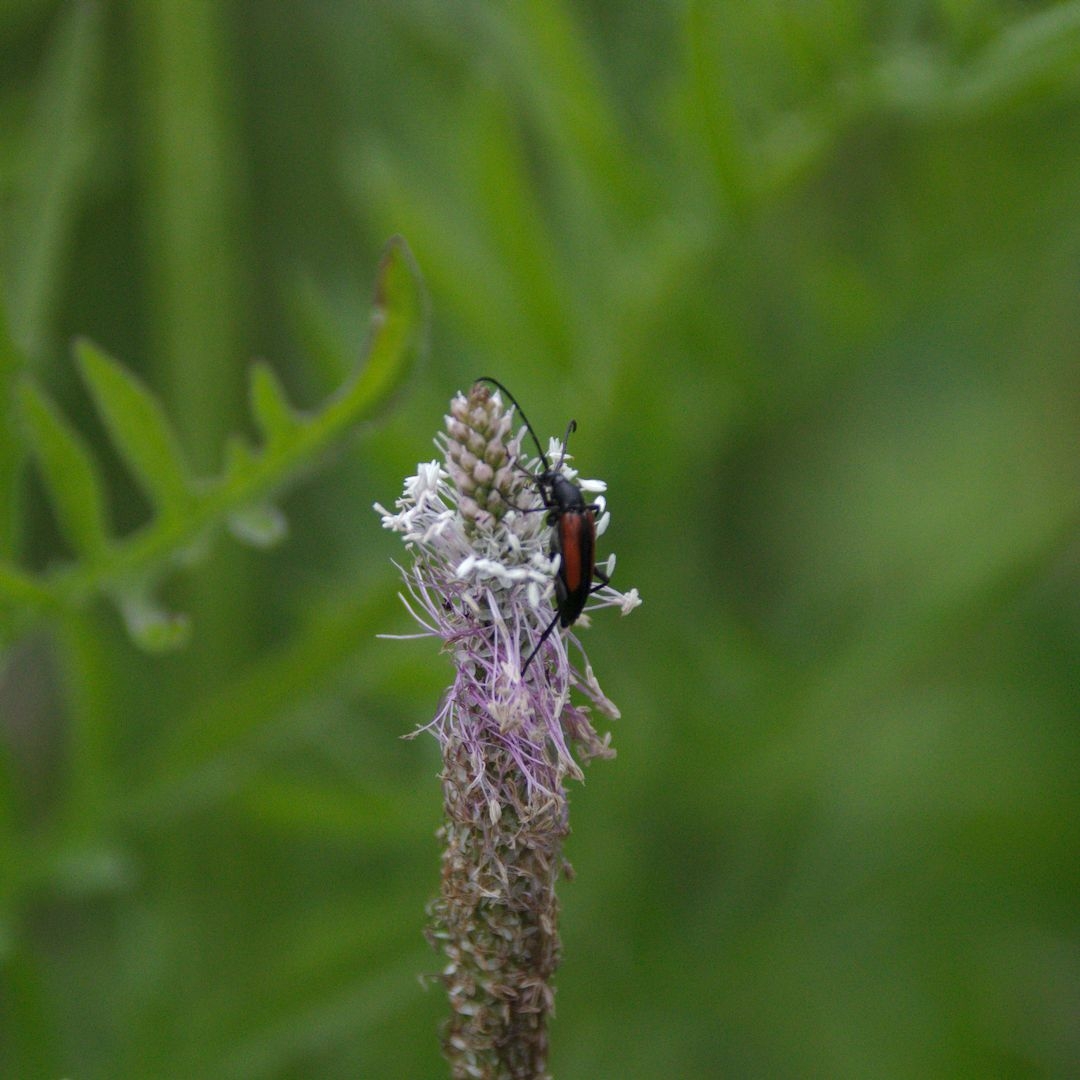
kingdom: Animalia
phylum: Arthropoda
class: Insecta
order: Coleoptera
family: Cerambycidae
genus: Stenurella
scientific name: Stenurella melanura
